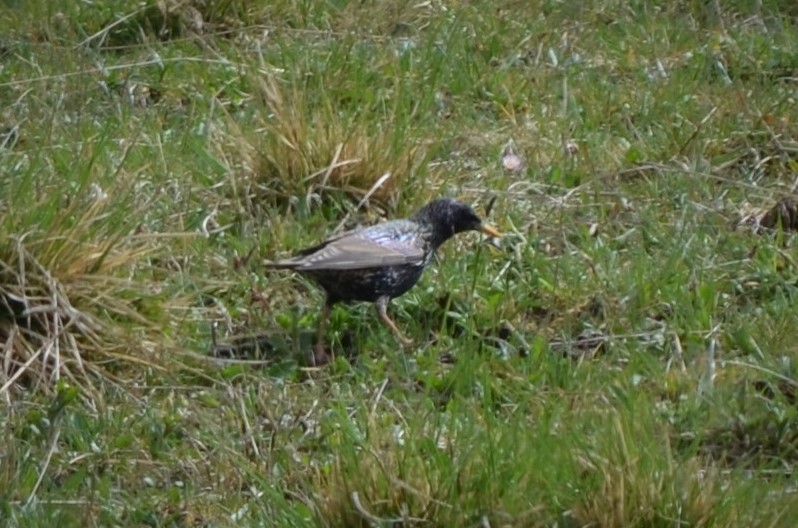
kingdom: Animalia
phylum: Chordata
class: Aves
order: Passeriformes
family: Sturnidae
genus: Sturnus
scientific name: Sturnus vulgaris
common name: Common starling
